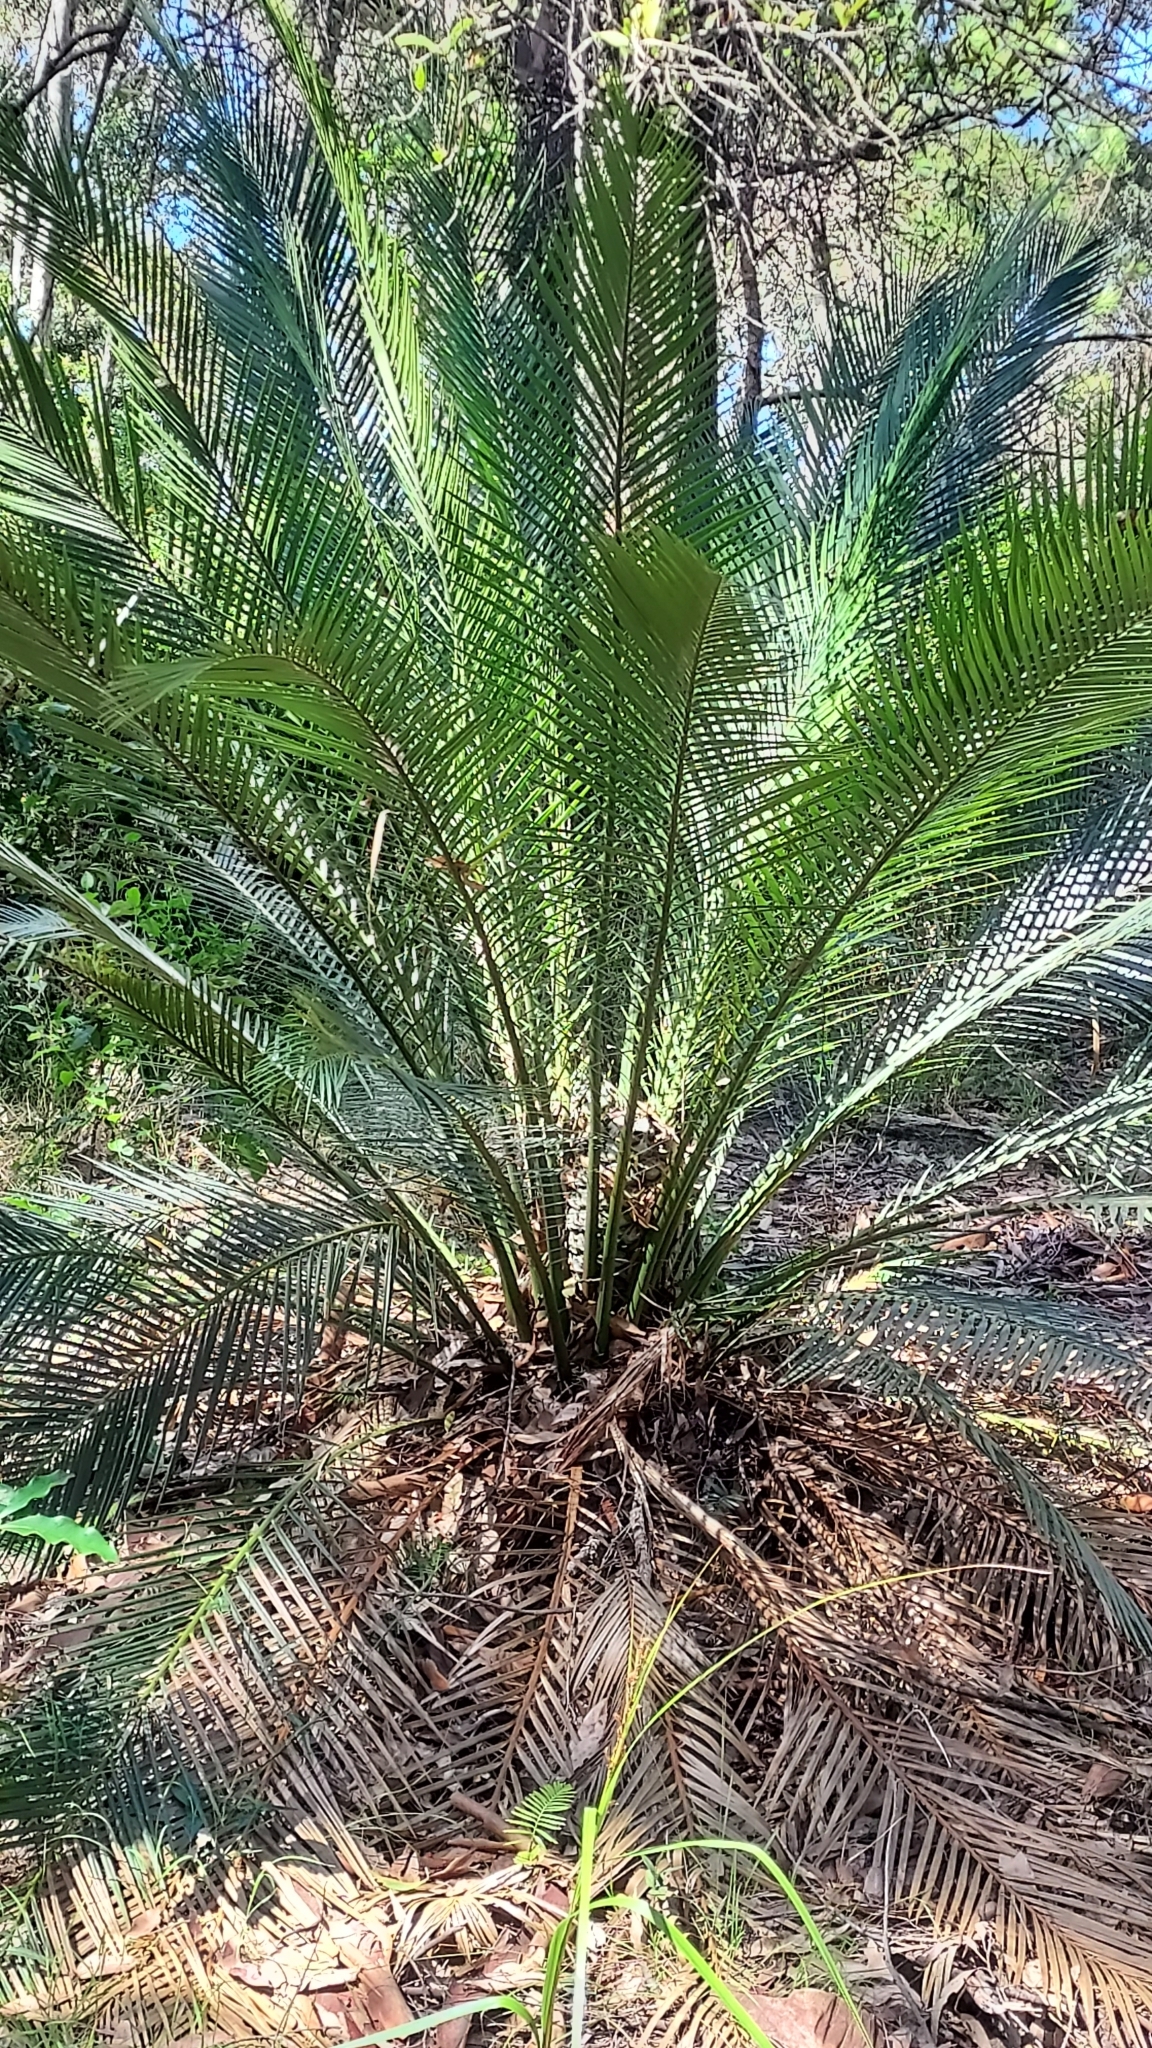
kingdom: Plantae
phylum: Tracheophyta
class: Cycadopsida
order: Cycadales
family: Zamiaceae
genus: Macrozamia
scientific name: Macrozamia communis
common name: Burrawong
